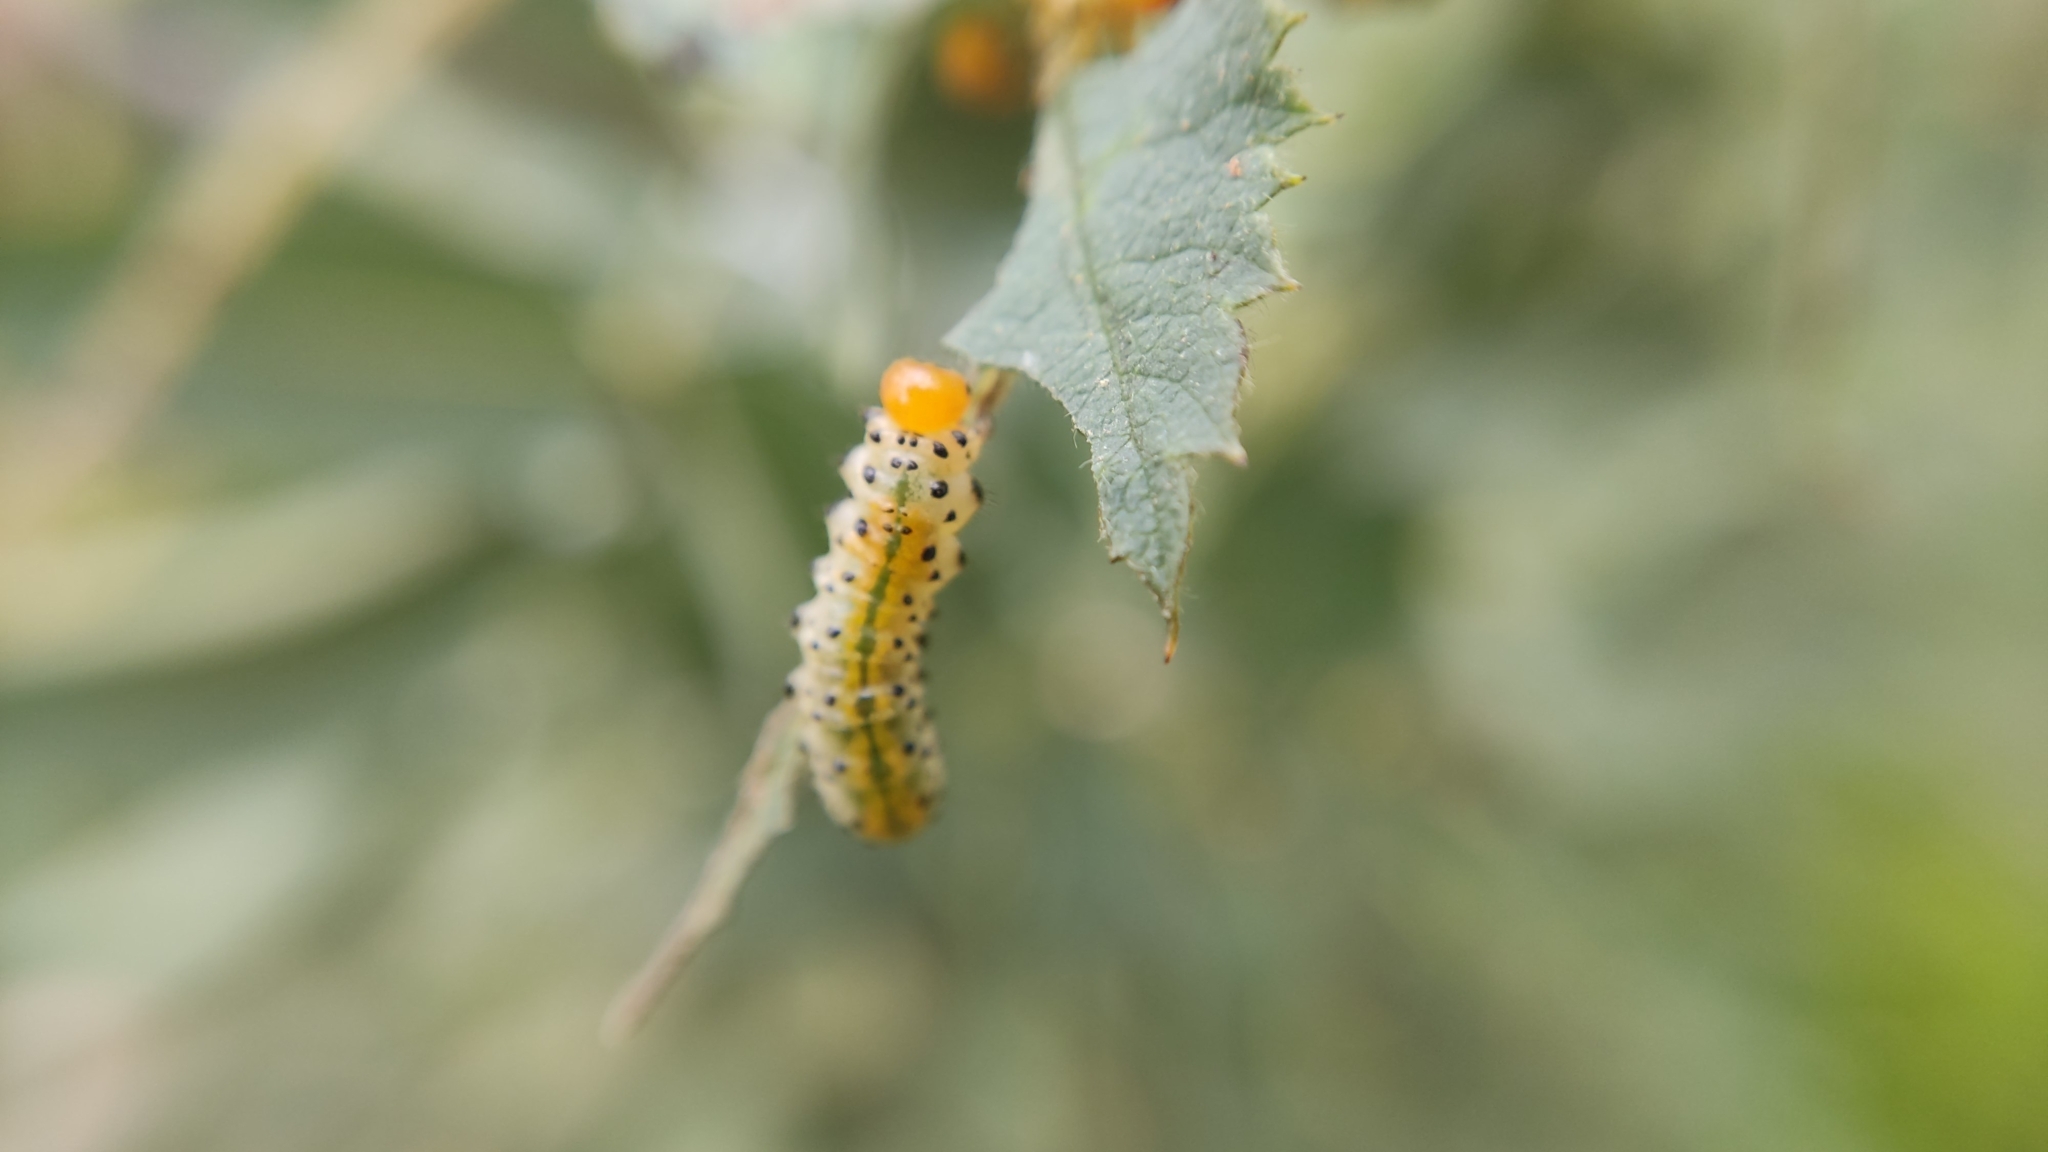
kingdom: Animalia
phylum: Arthropoda
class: Insecta
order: Hymenoptera
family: Argidae
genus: Arge
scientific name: Arge ochropus
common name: Argid sawfly
